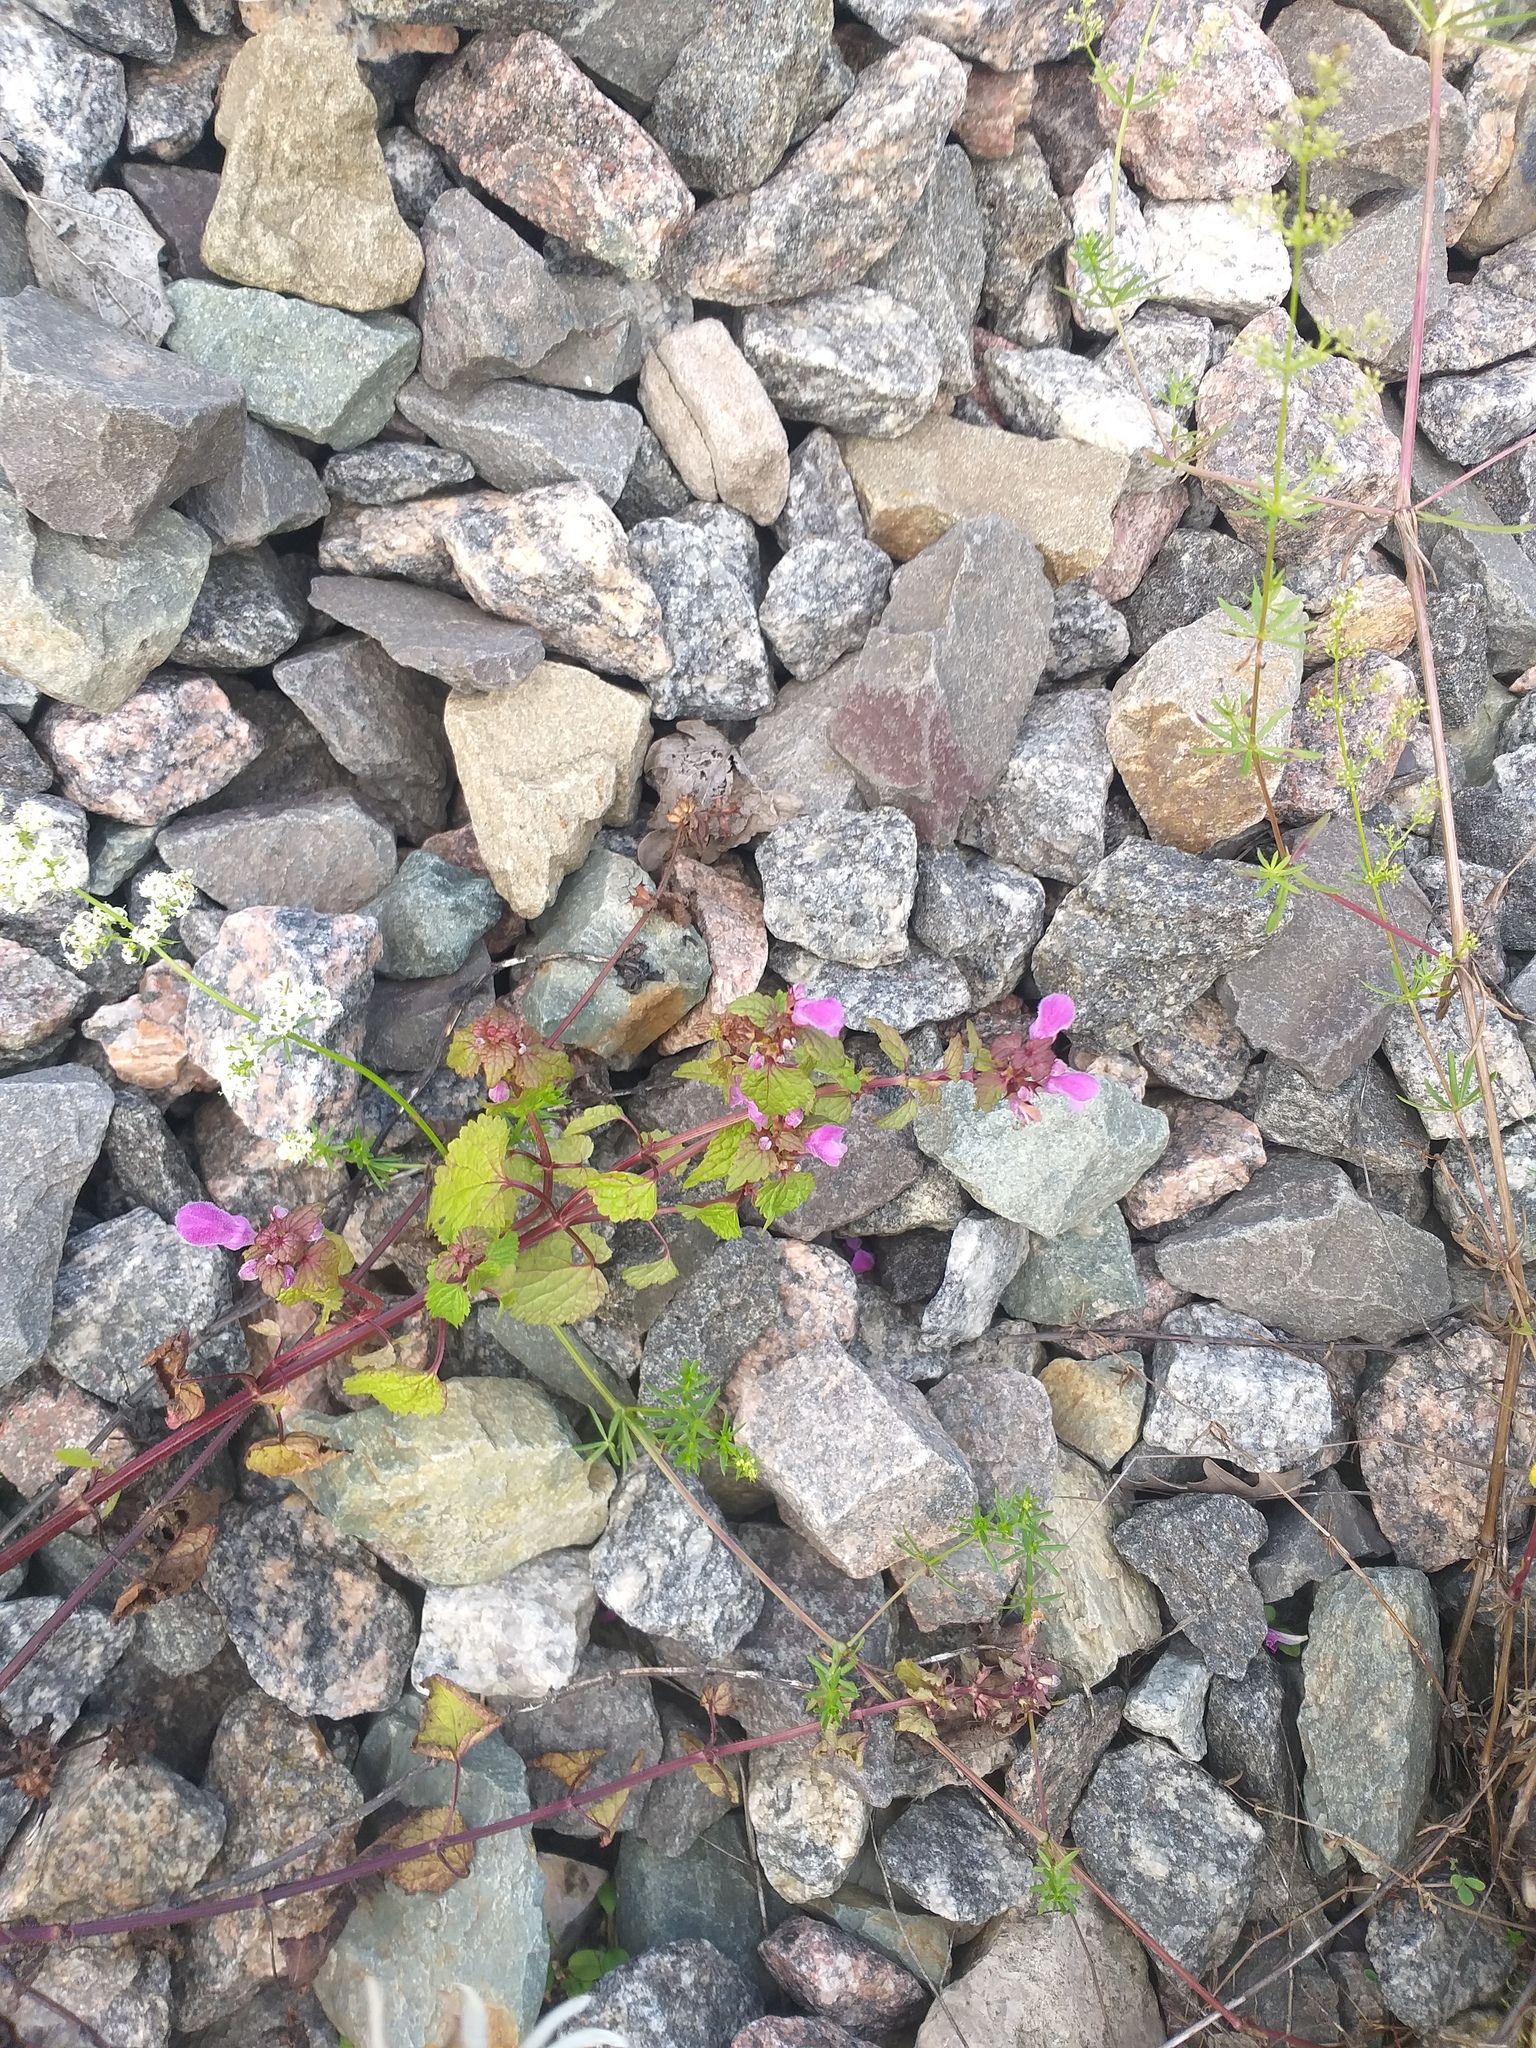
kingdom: Plantae
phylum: Tracheophyta
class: Magnoliopsida
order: Lamiales
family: Lamiaceae
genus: Lamium
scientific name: Lamium maculatum
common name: Spotted dead-nettle
